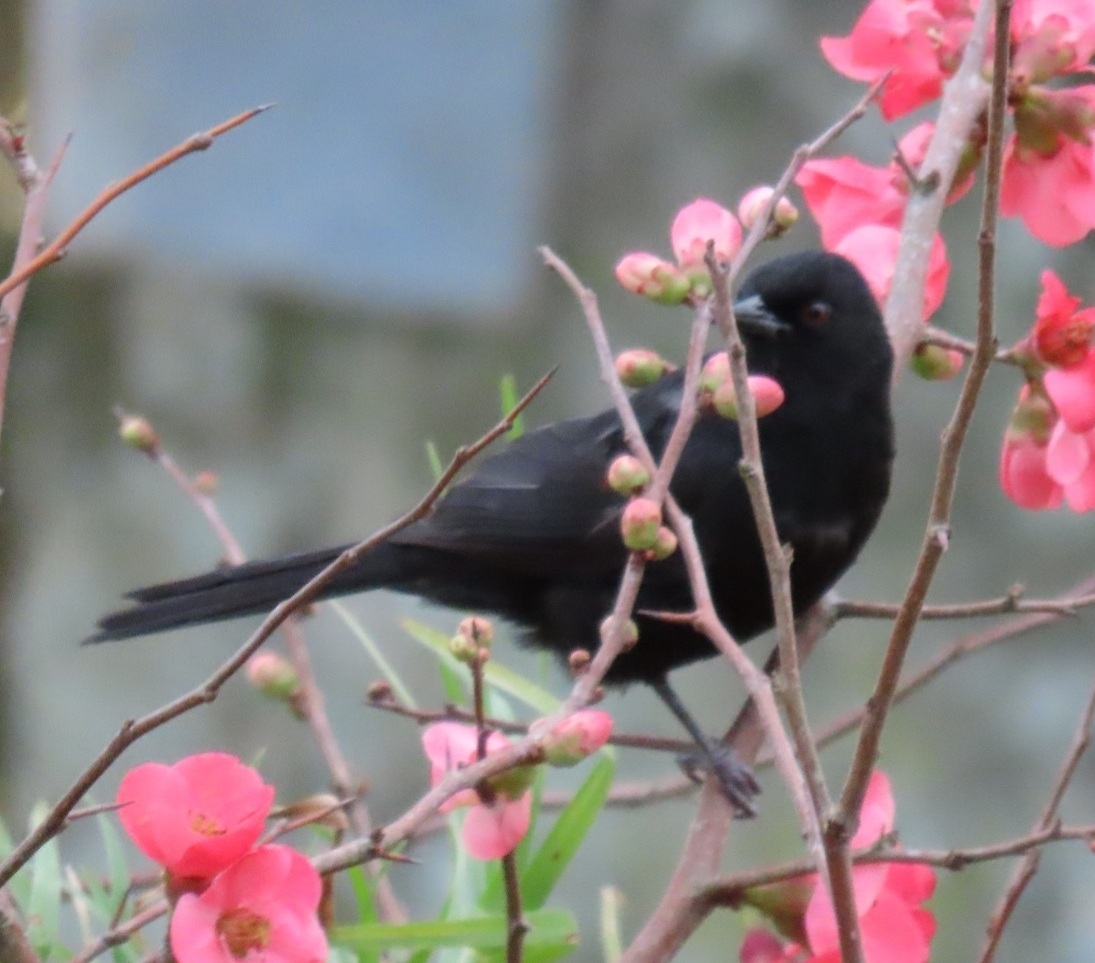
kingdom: Animalia
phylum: Chordata
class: Aves
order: Passeriformes
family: Icteridae
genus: Icterus
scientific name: Icterus cayanensis
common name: Epaulet oriole
